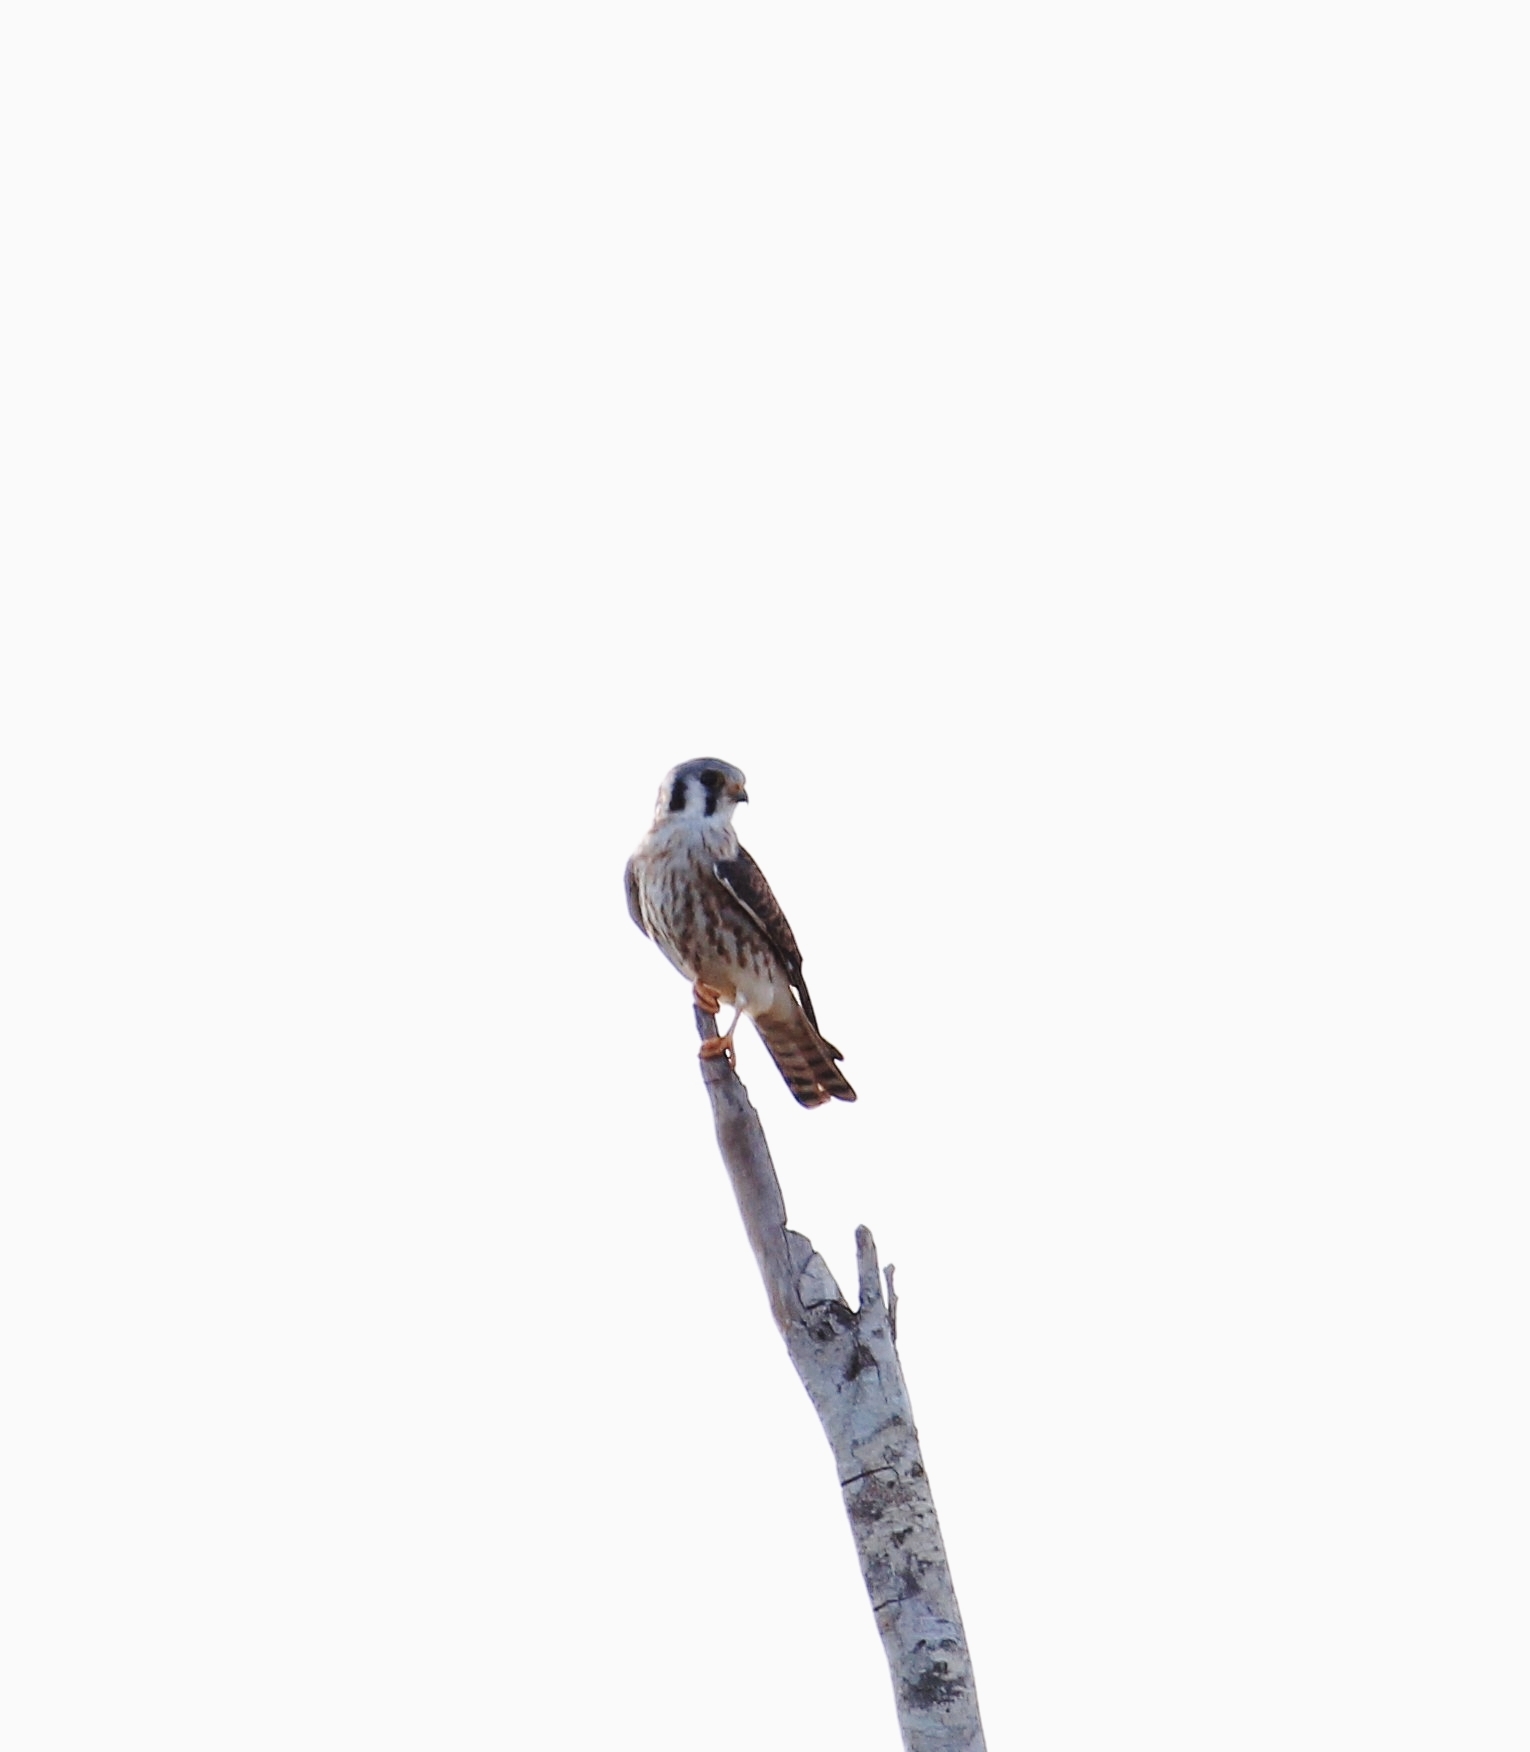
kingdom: Animalia
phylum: Chordata
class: Aves
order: Falconiformes
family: Falconidae
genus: Falco
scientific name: Falco sparverius
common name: American kestrel
